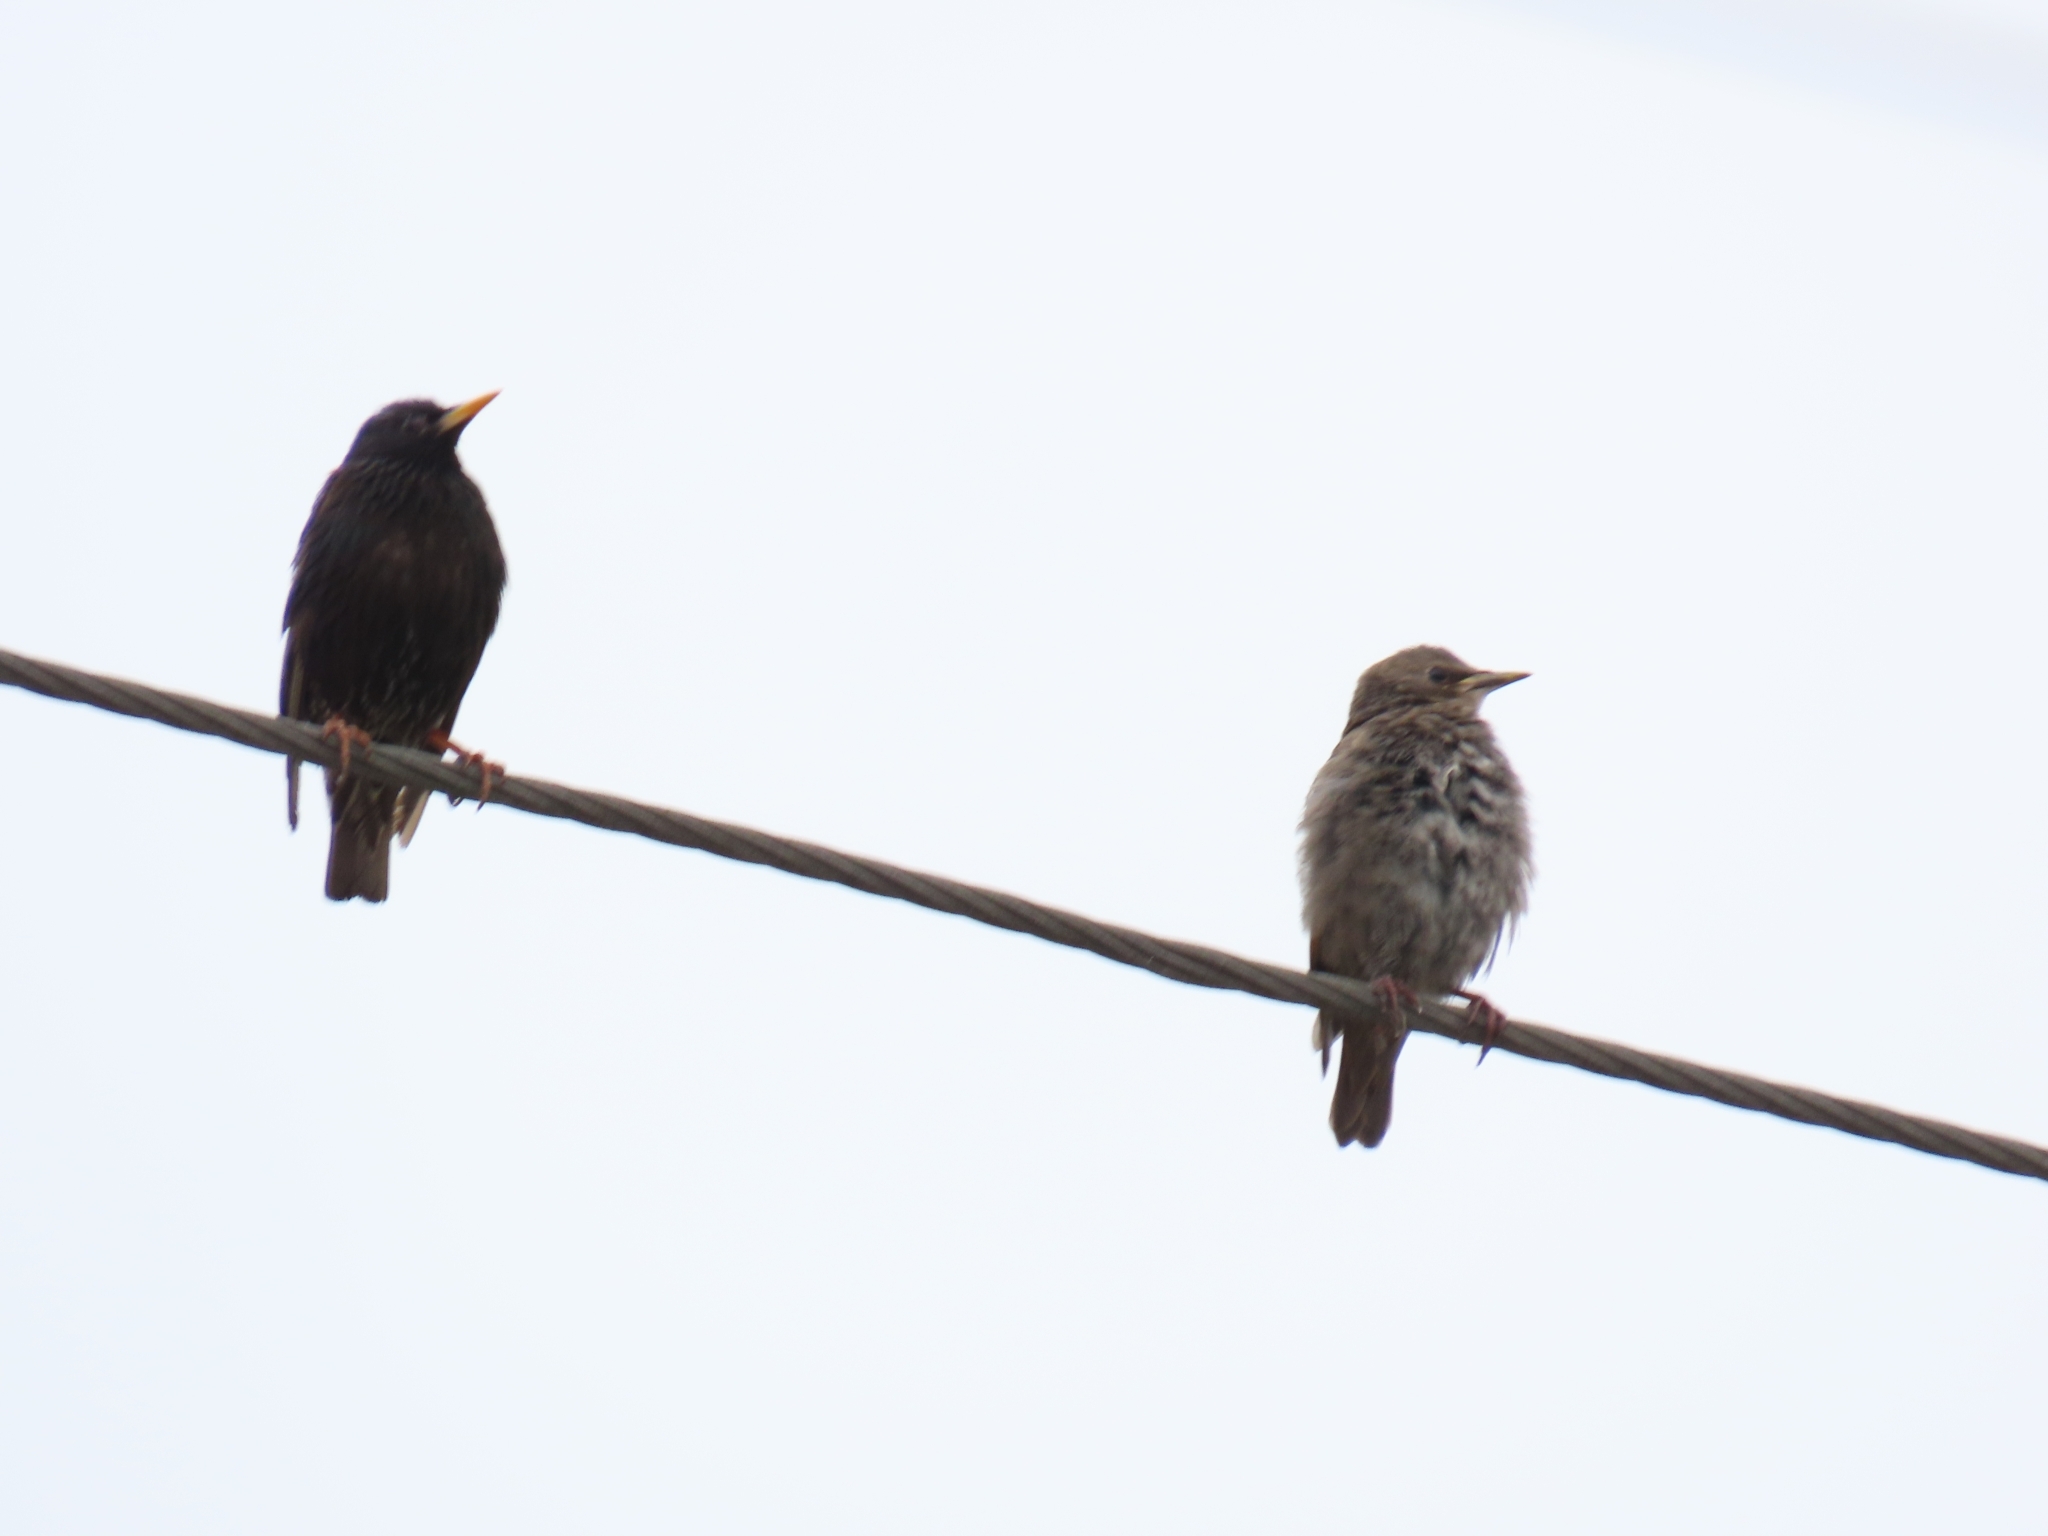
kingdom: Animalia
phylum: Chordata
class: Aves
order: Passeriformes
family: Sturnidae
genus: Sturnus
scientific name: Sturnus vulgaris
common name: Common starling
